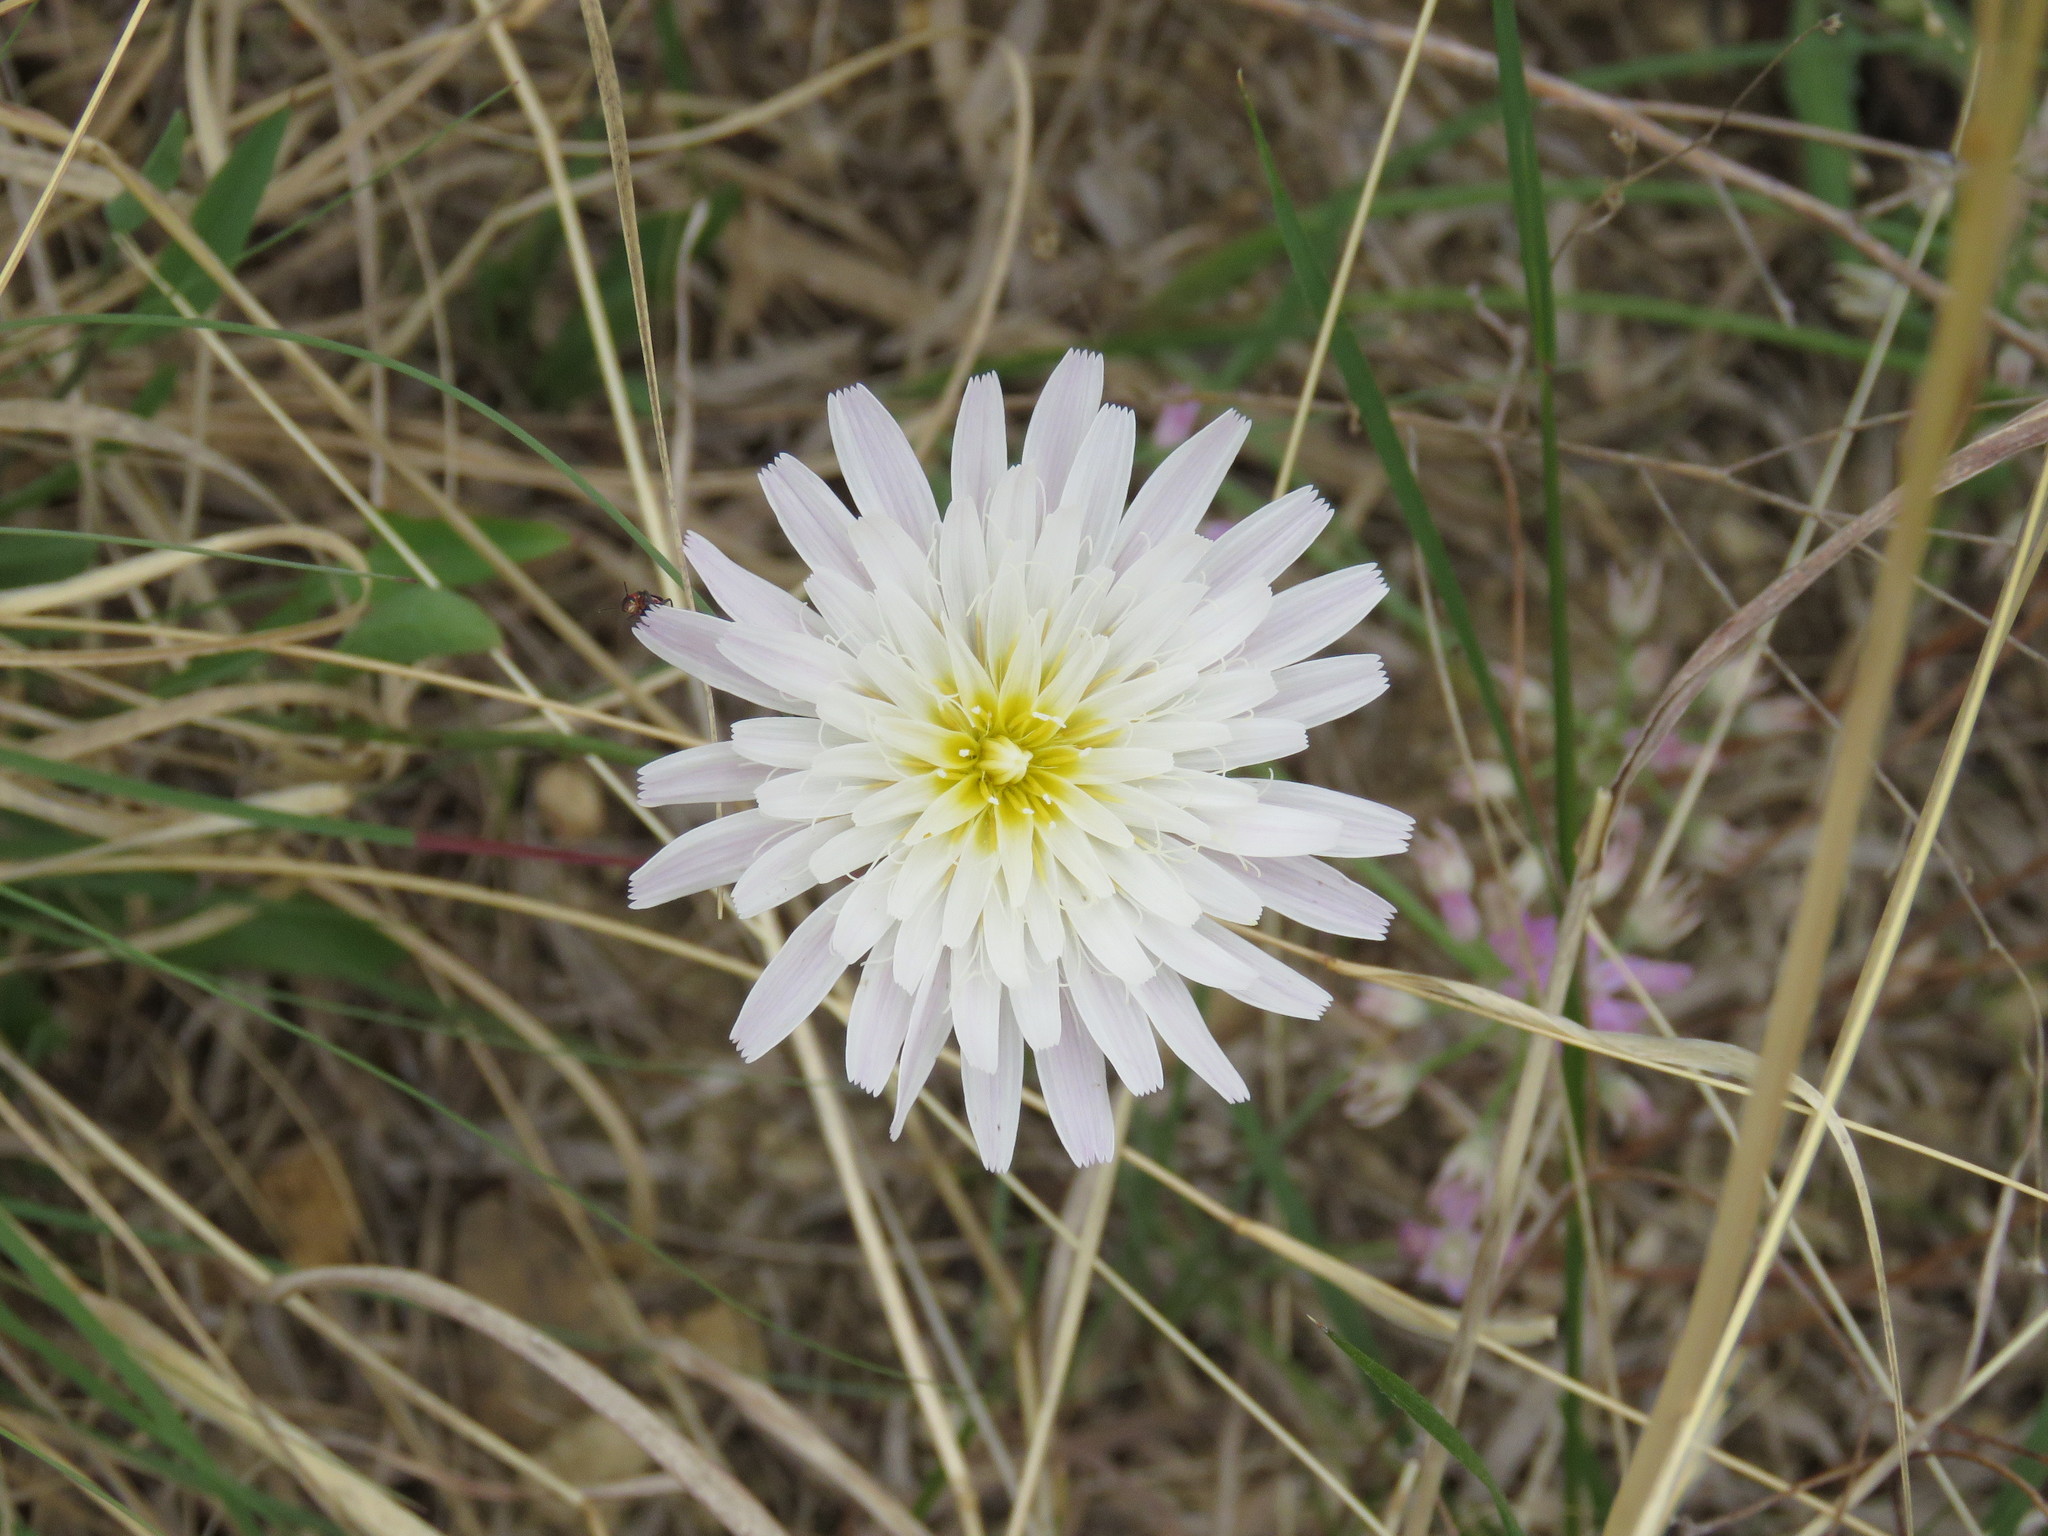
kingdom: Plantae
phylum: Tracheophyta
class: Magnoliopsida
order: Asterales
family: Asteraceae
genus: Pinaropappus
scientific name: Pinaropappus roseus
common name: Rock-lettuce
